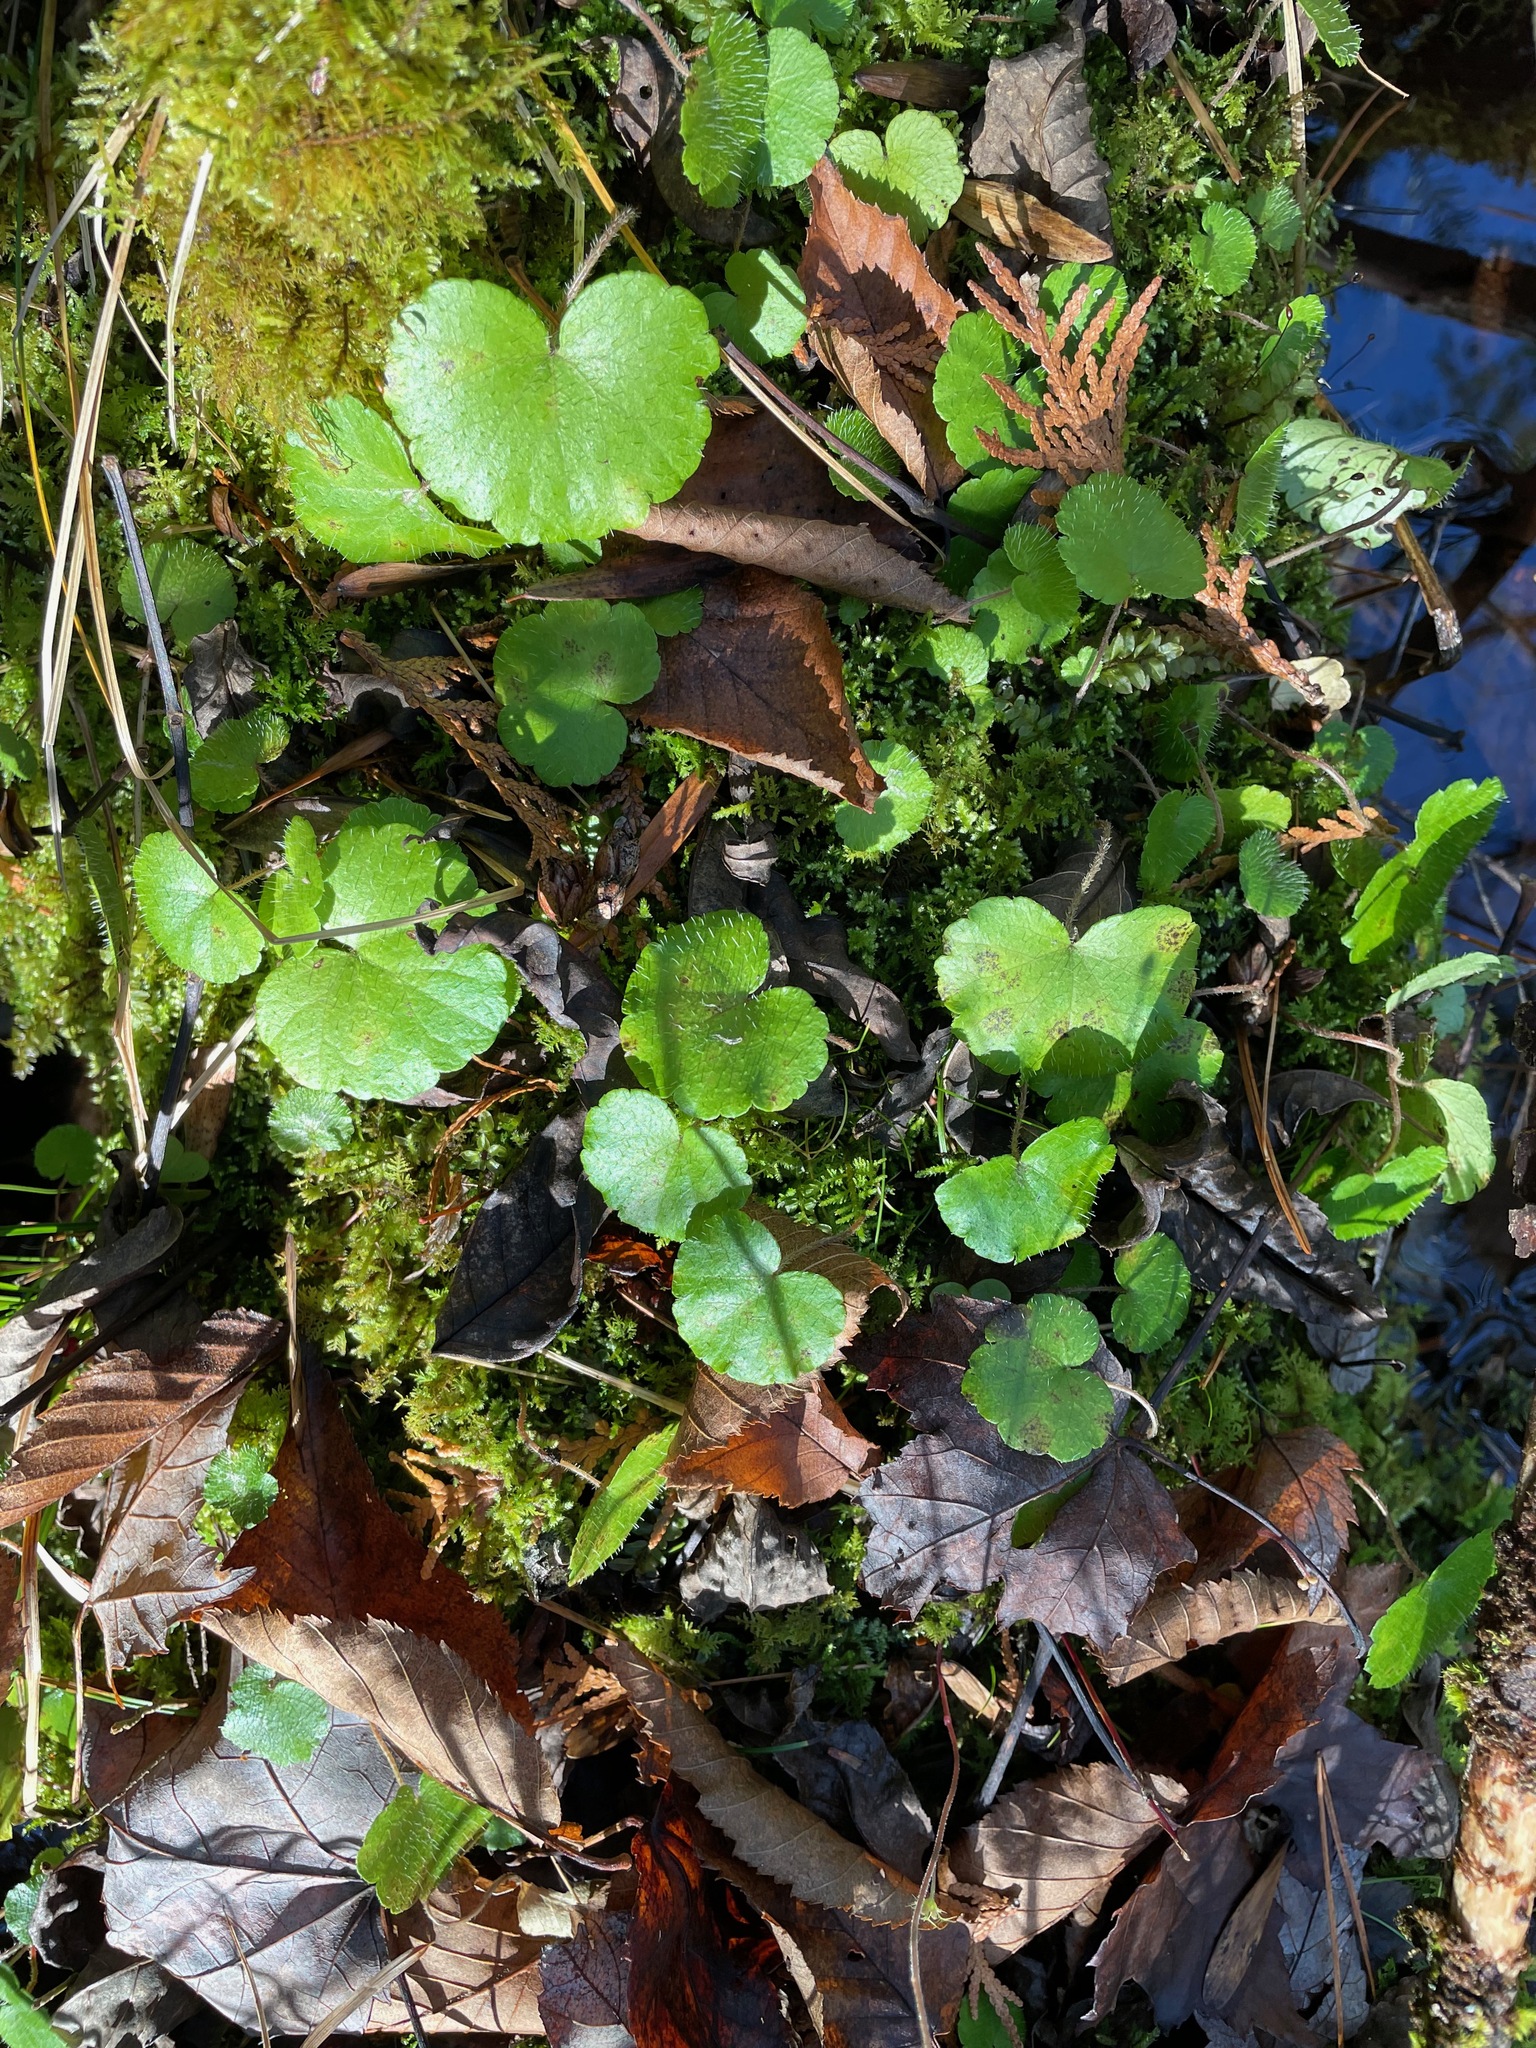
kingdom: Plantae
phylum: Tracheophyta
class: Magnoliopsida
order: Saxifragales
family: Saxifragaceae
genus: Mitella
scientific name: Mitella nuda
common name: Bare-stemmed bishop's-cap
